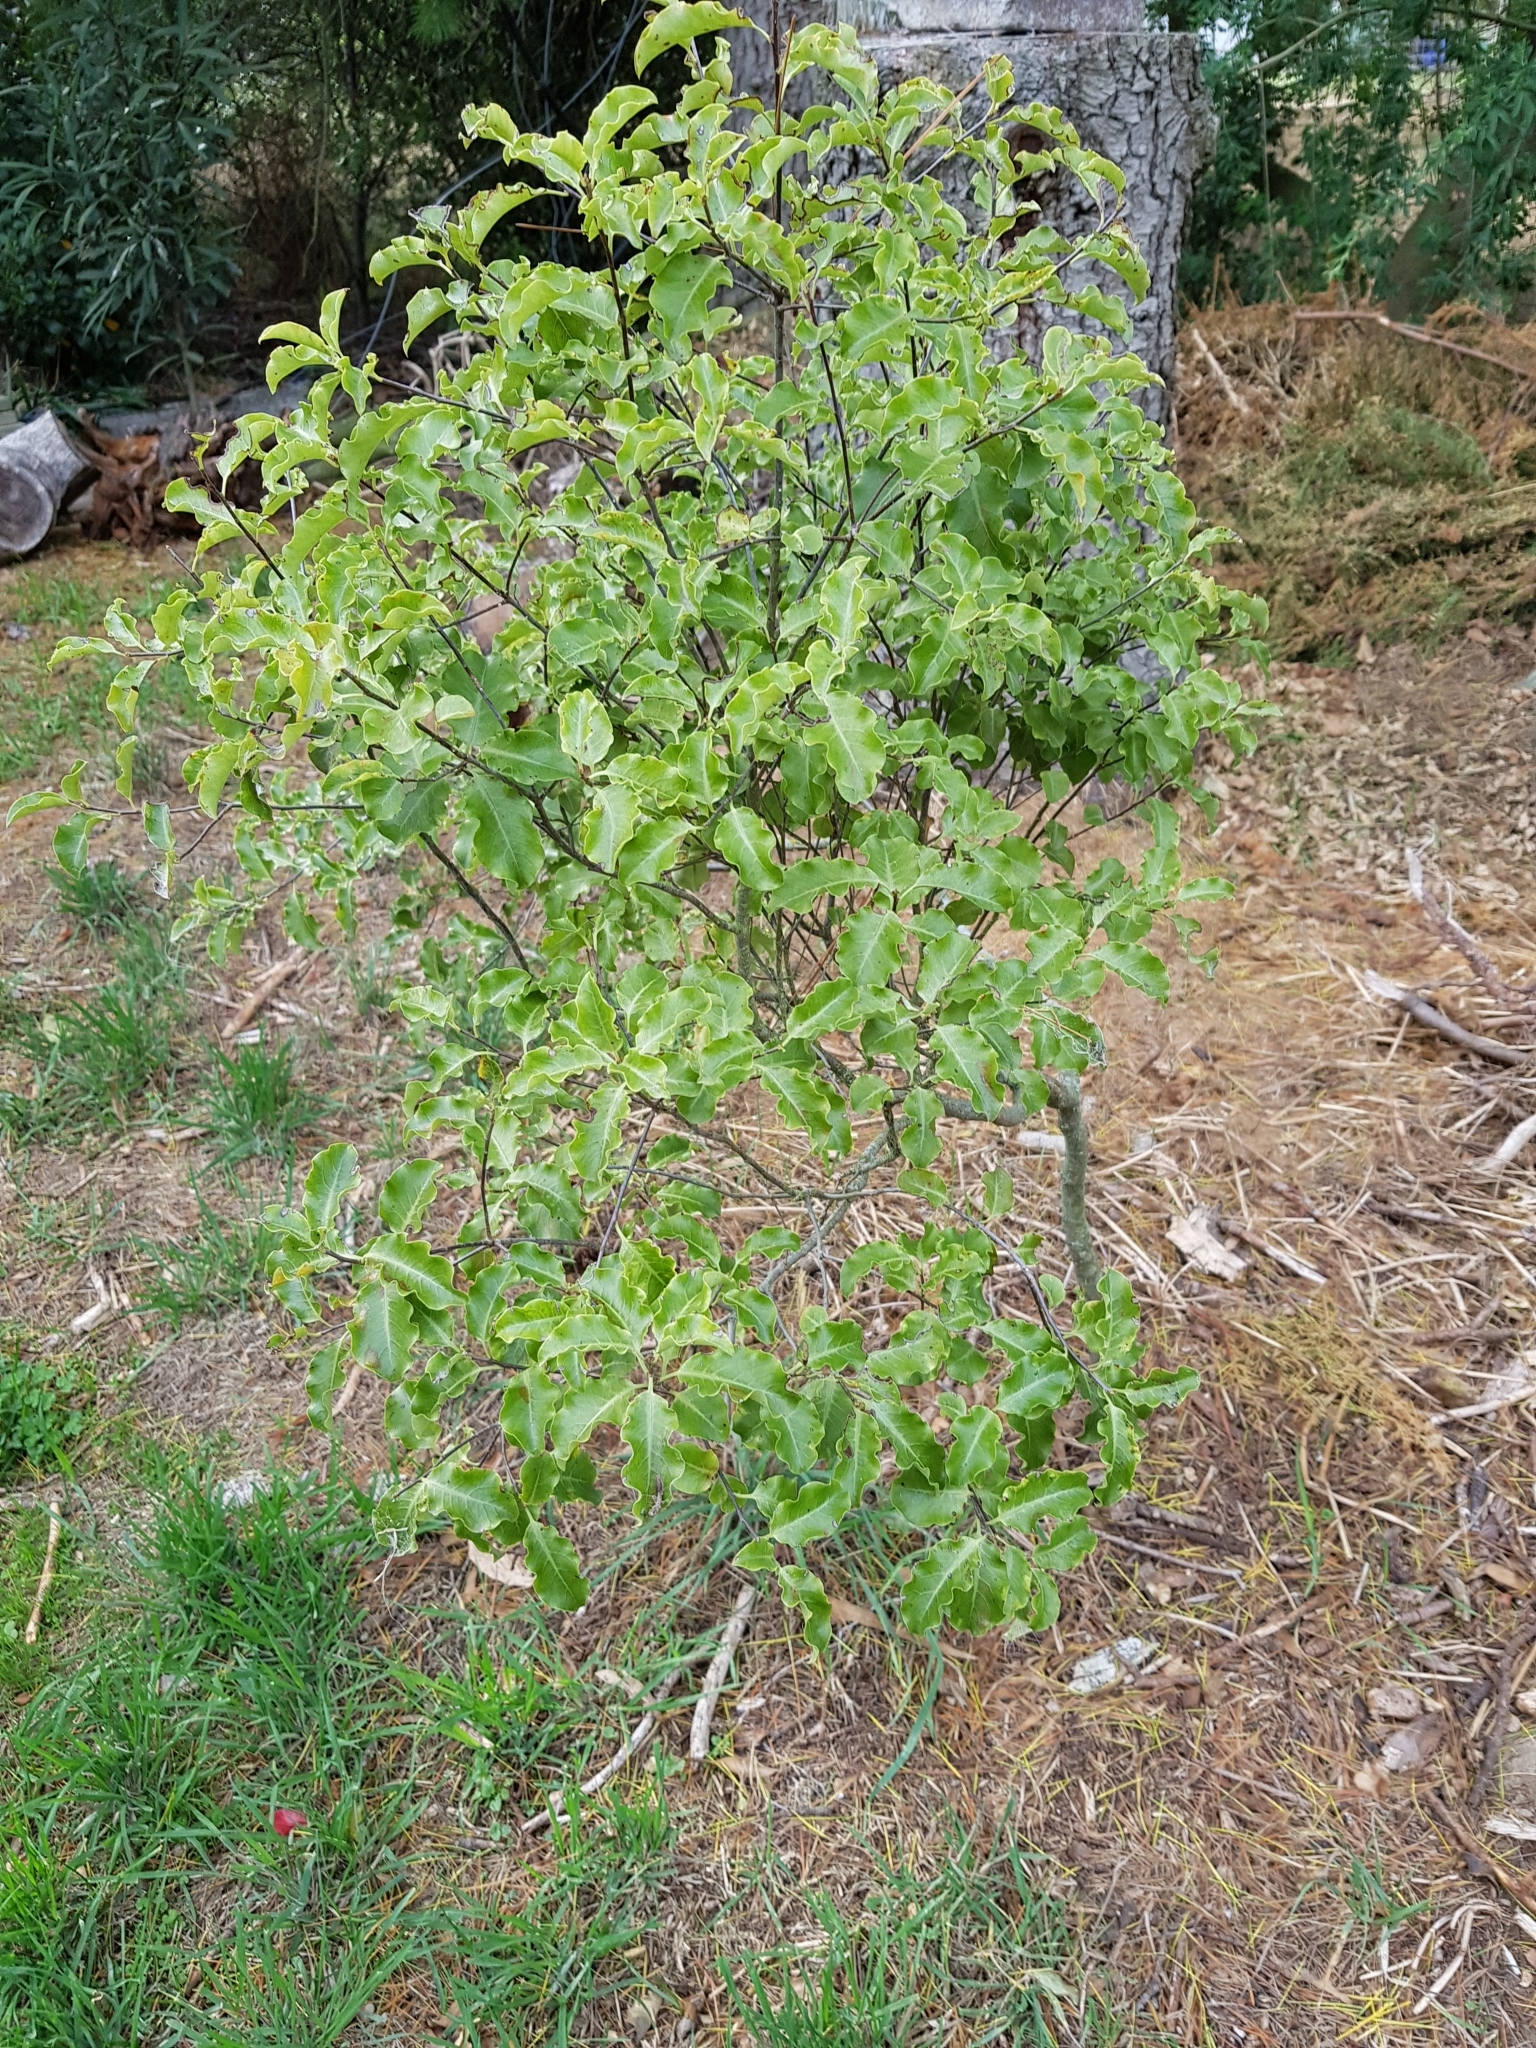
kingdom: Plantae
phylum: Tracheophyta
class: Magnoliopsida
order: Apiales
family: Pittosporaceae
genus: Pittosporum
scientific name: Pittosporum eugenioides
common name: Lemonwood
